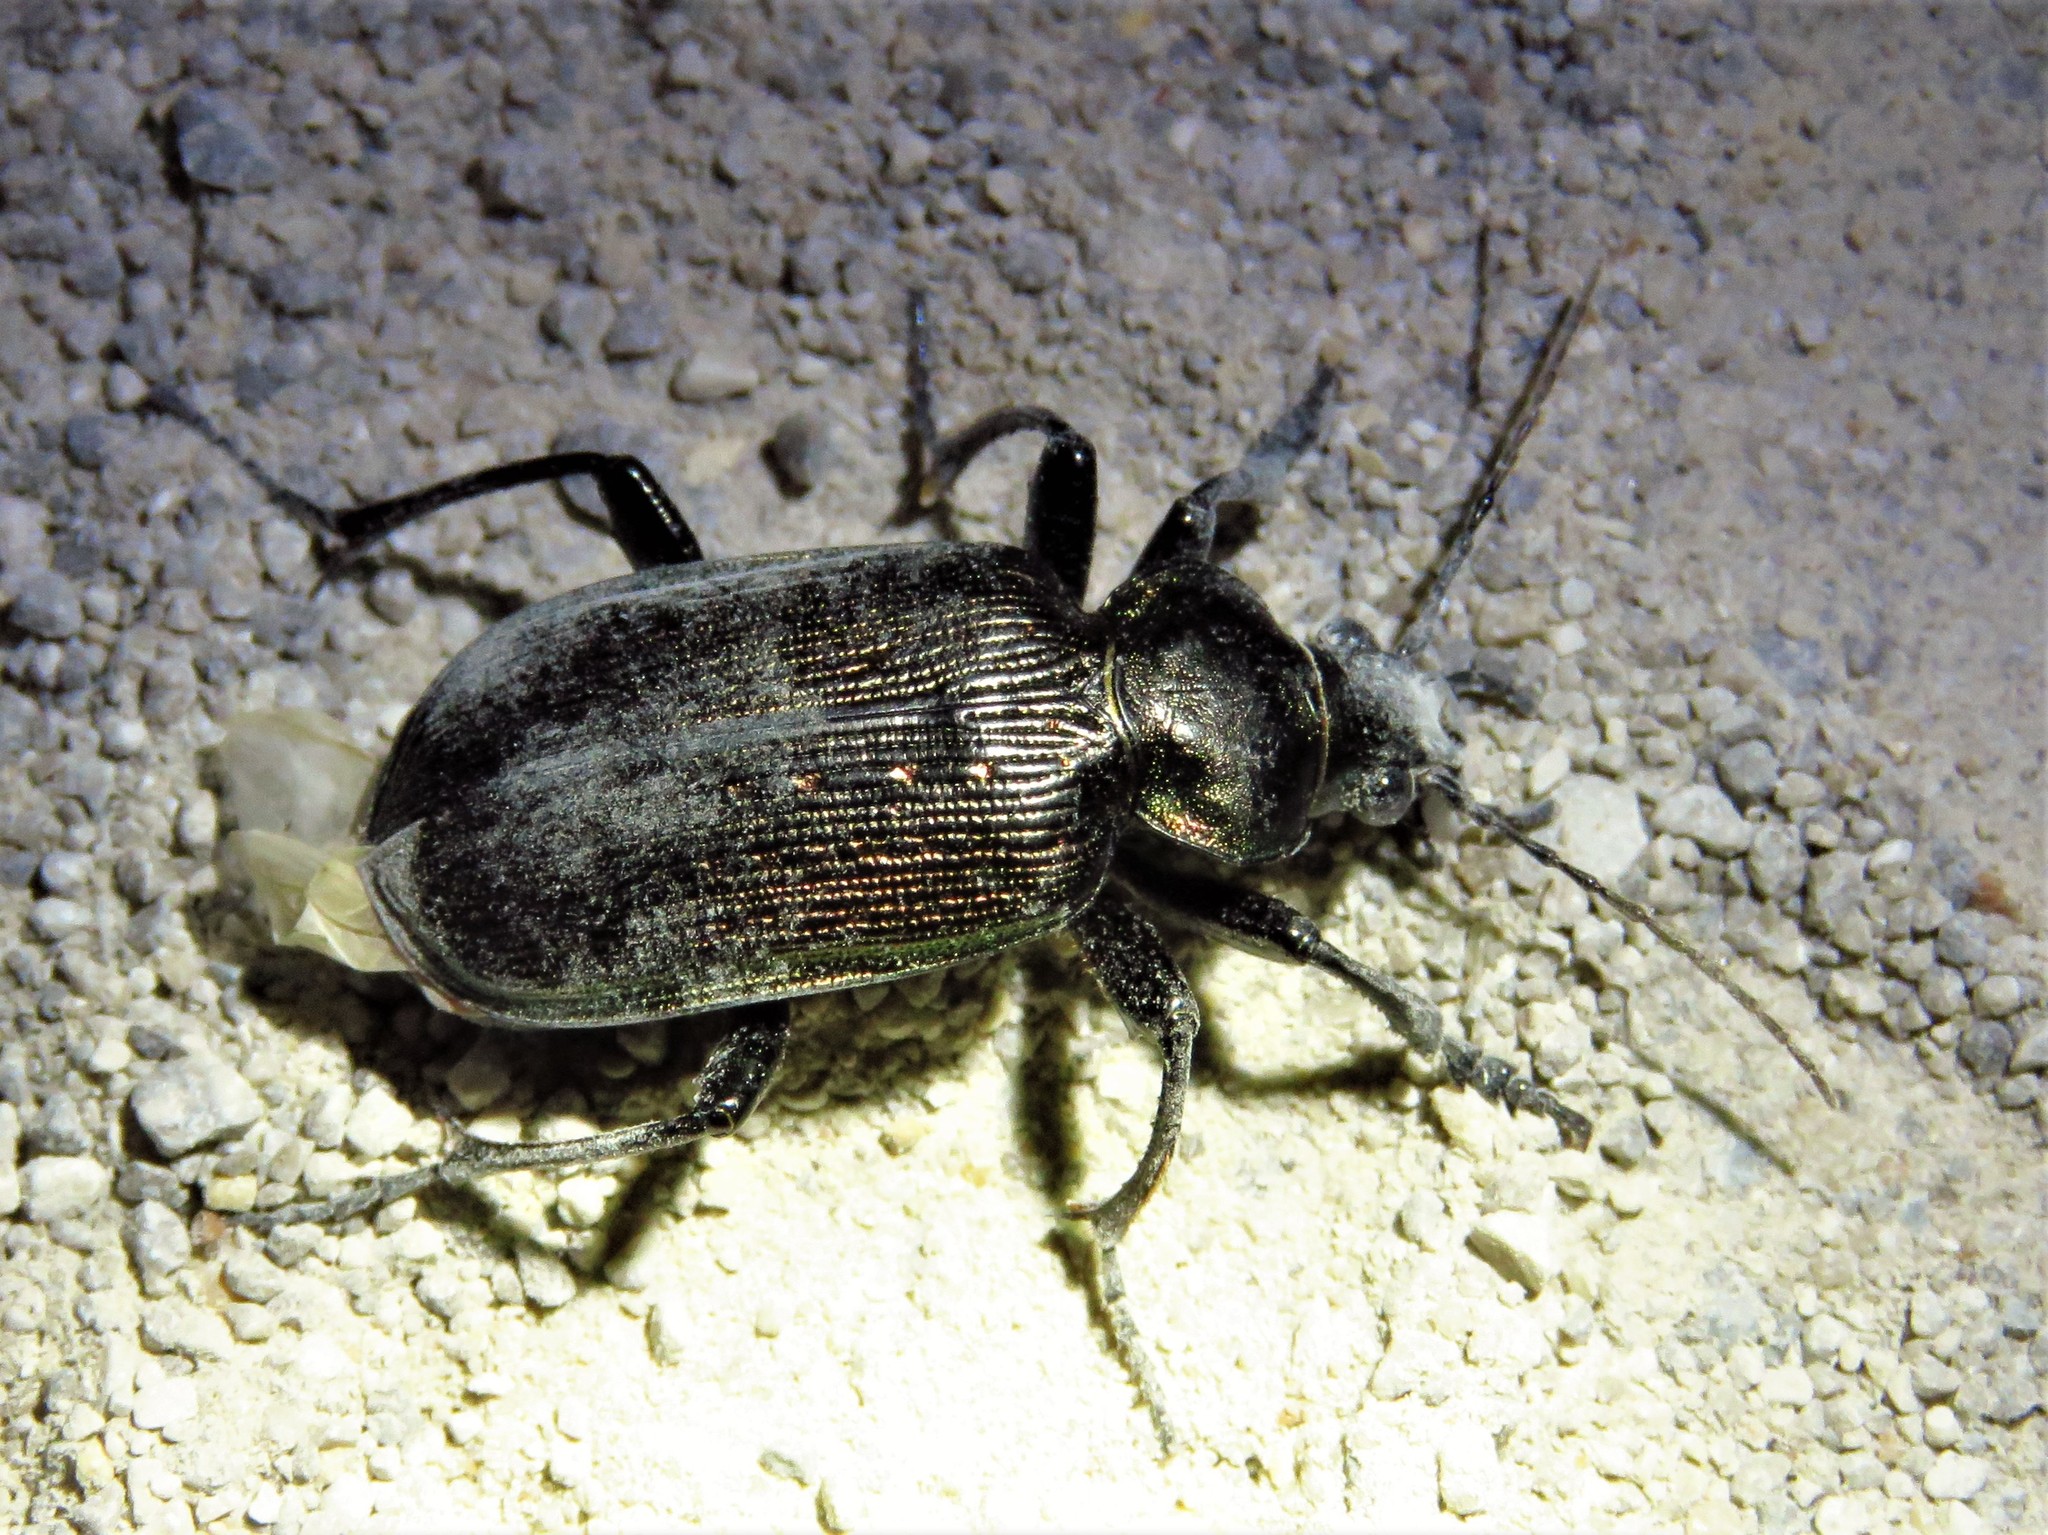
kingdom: Animalia
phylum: Arthropoda
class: Insecta
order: Coleoptera
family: Carabidae
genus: Calosoma
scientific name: Calosoma sayi
